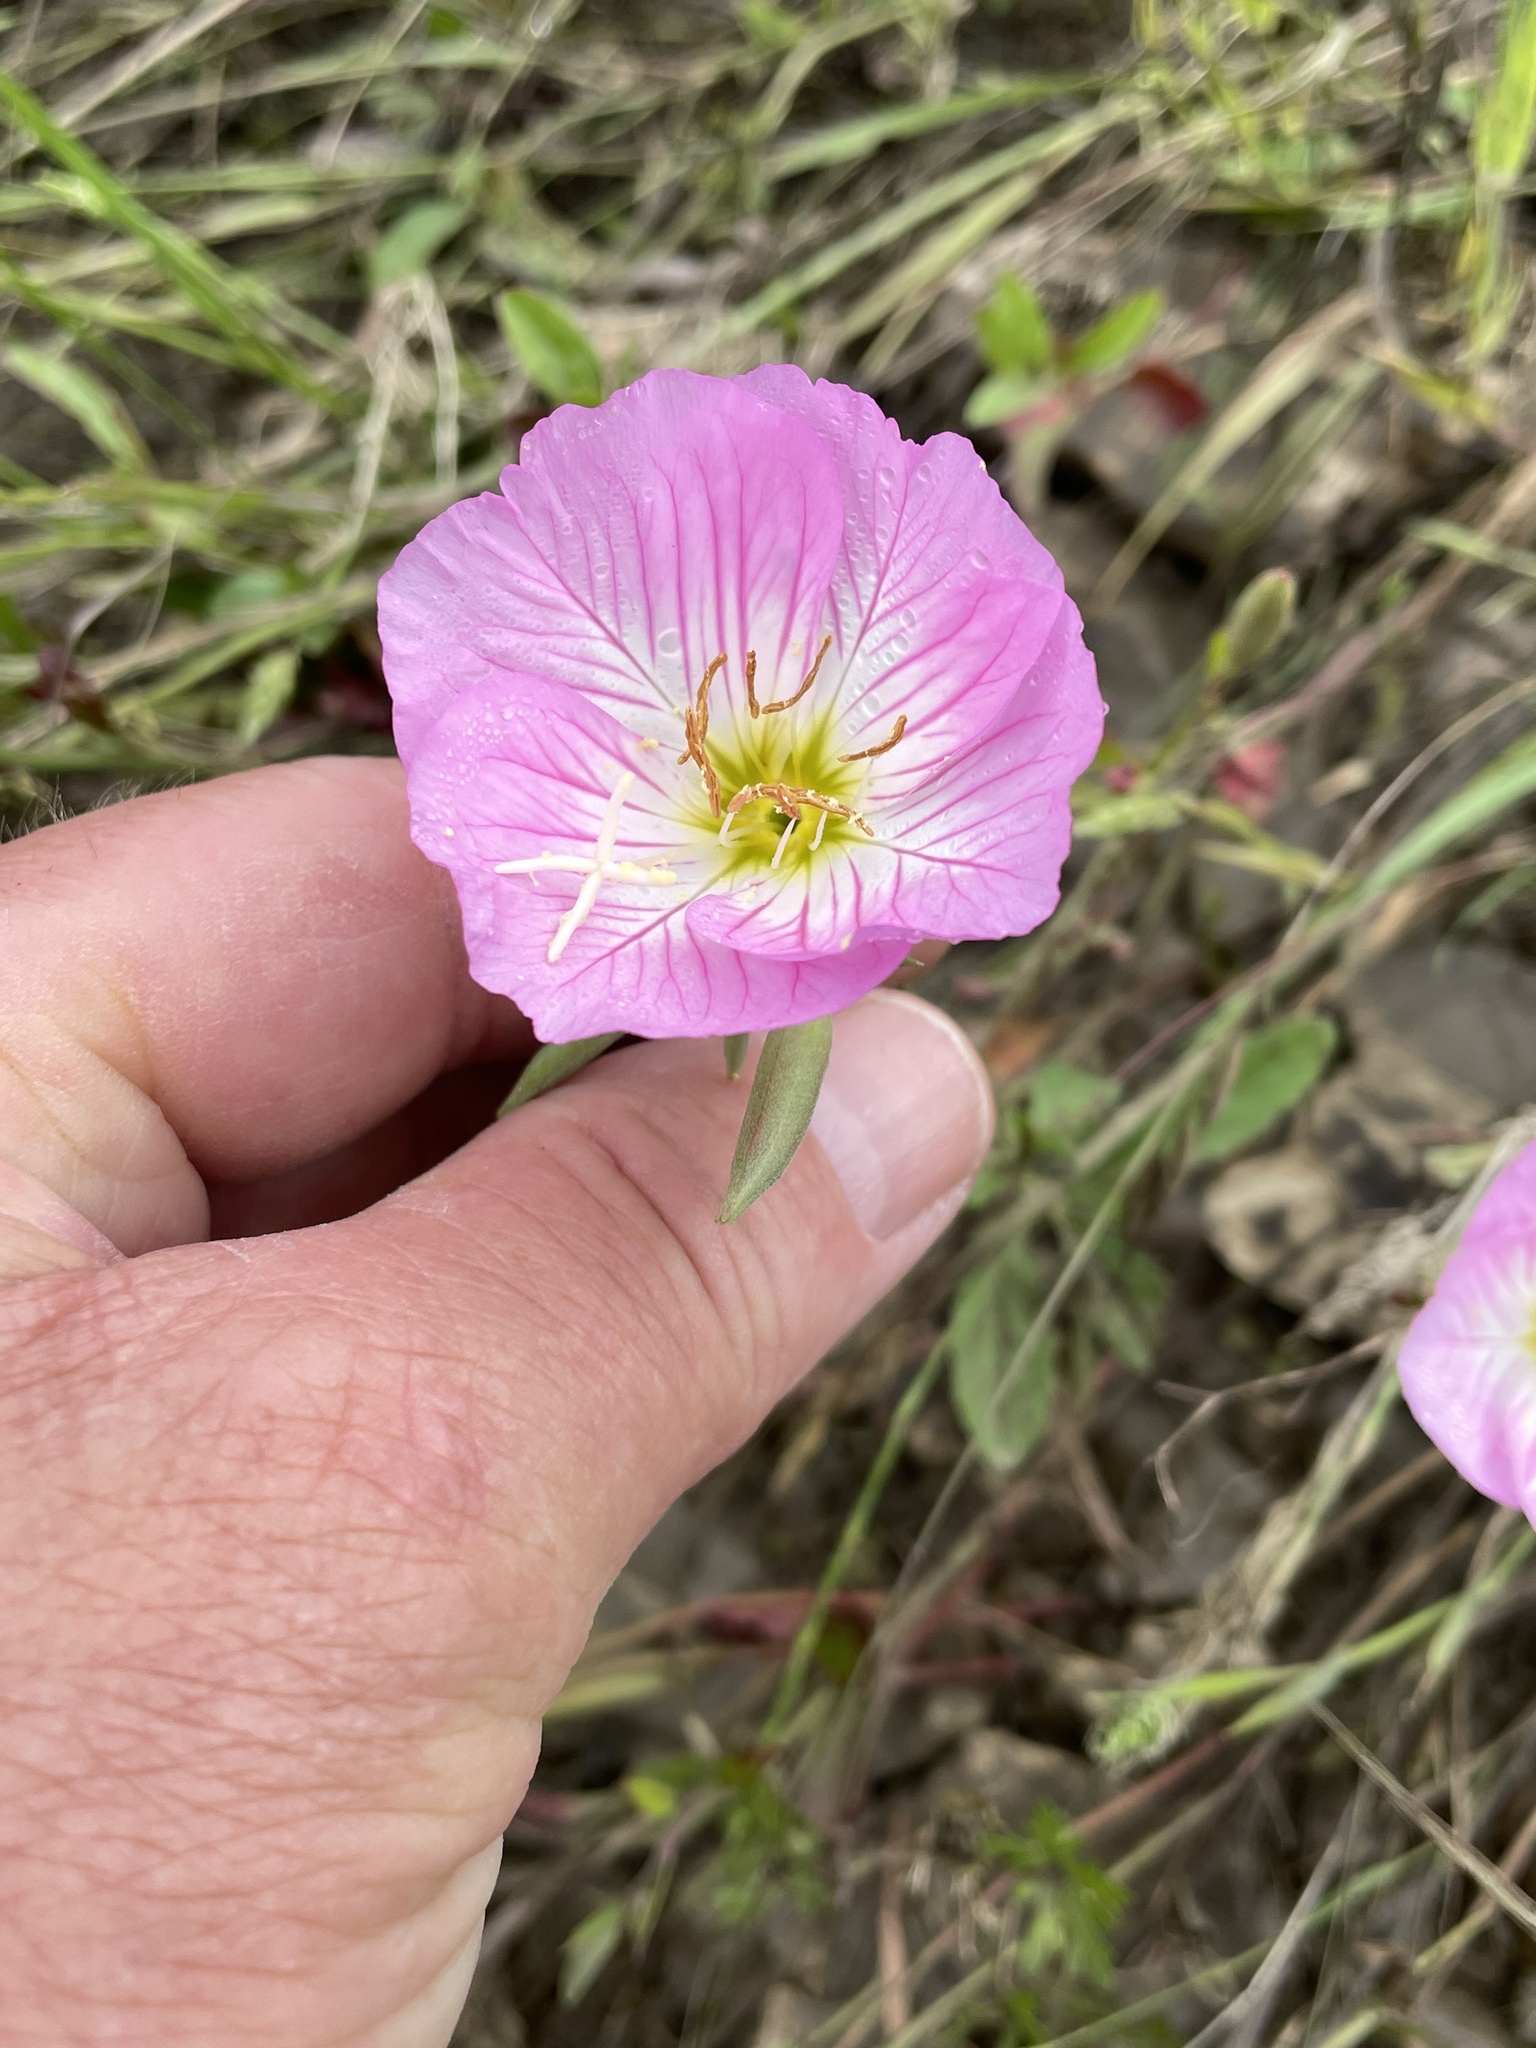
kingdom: Plantae
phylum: Tracheophyta
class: Magnoliopsida
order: Myrtales
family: Onagraceae
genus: Oenothera
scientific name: Oenothera speciosa
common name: White evening-primrose
